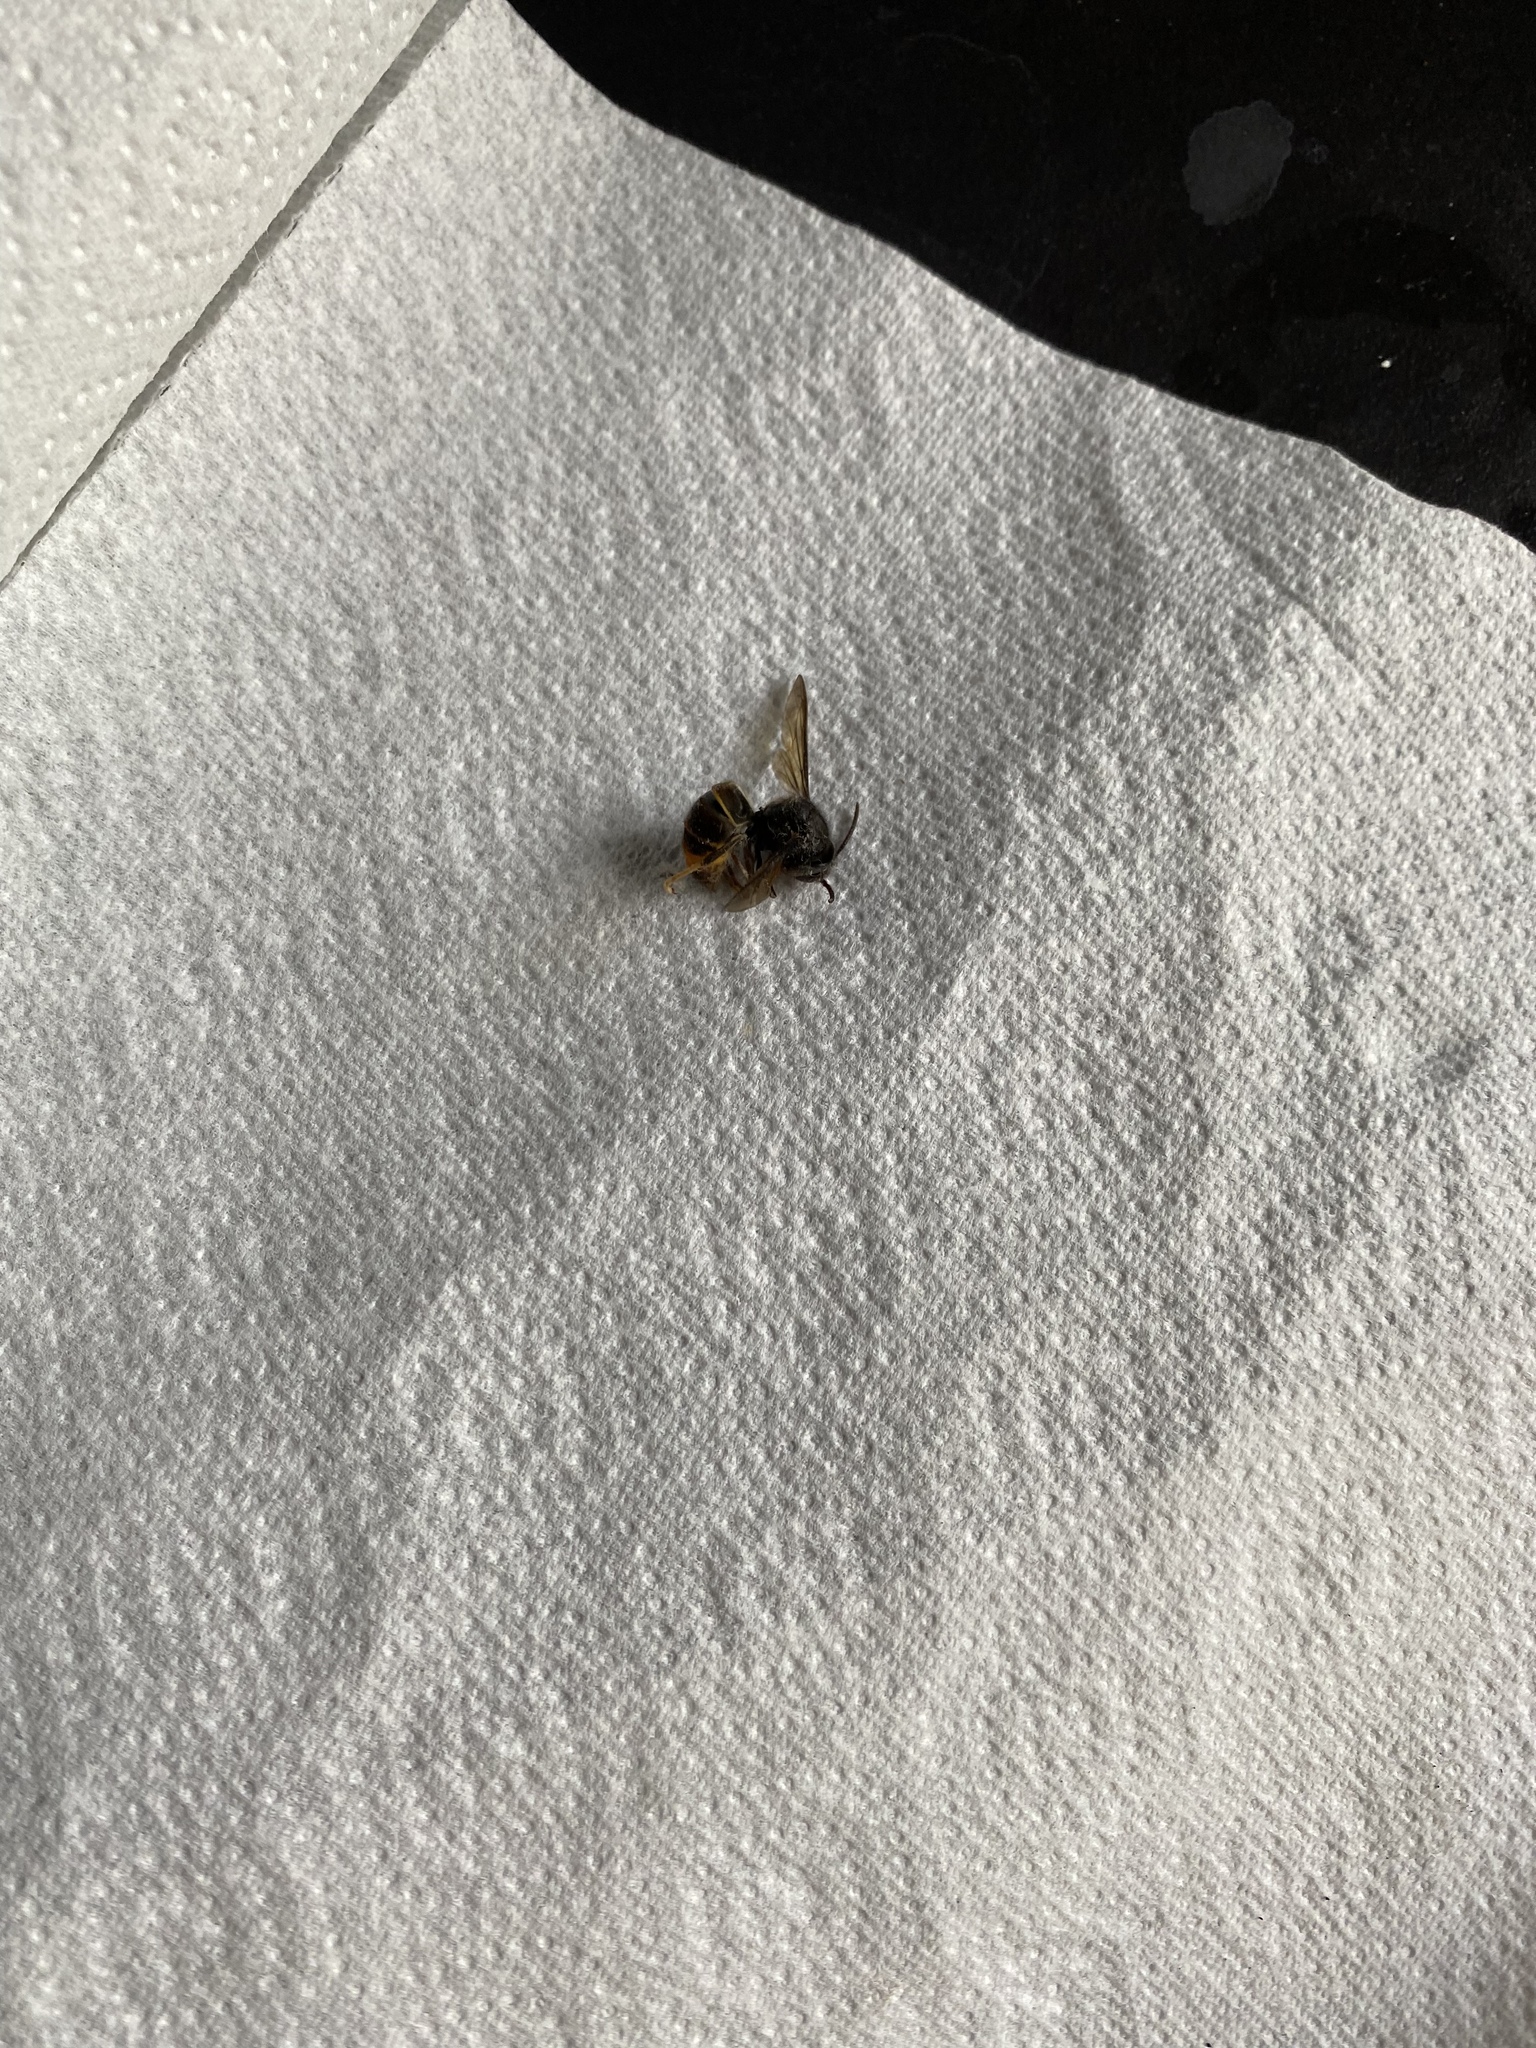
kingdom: Animalia
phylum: Arthropoda
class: Insecta
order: Hymenoptera
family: Vespidae
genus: Vespa
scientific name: Vespa velutina
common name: Asian hornet
